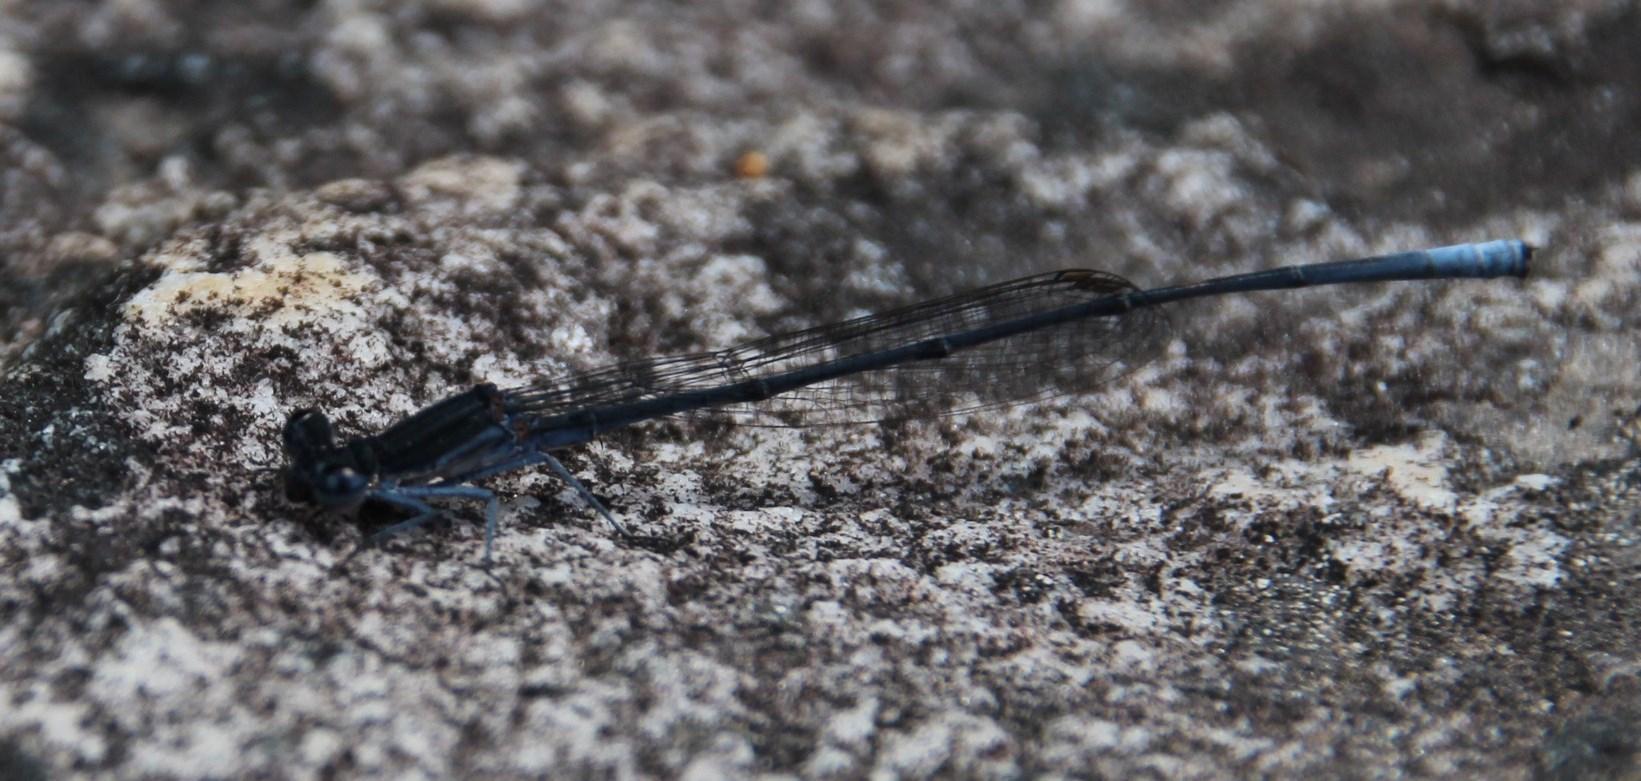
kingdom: Animalia
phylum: Arthropoda
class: Insecta
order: Odonata
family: Platycnemididae
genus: Elattoneura
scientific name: Elattoneura frenulata
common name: Sooty threadtail
